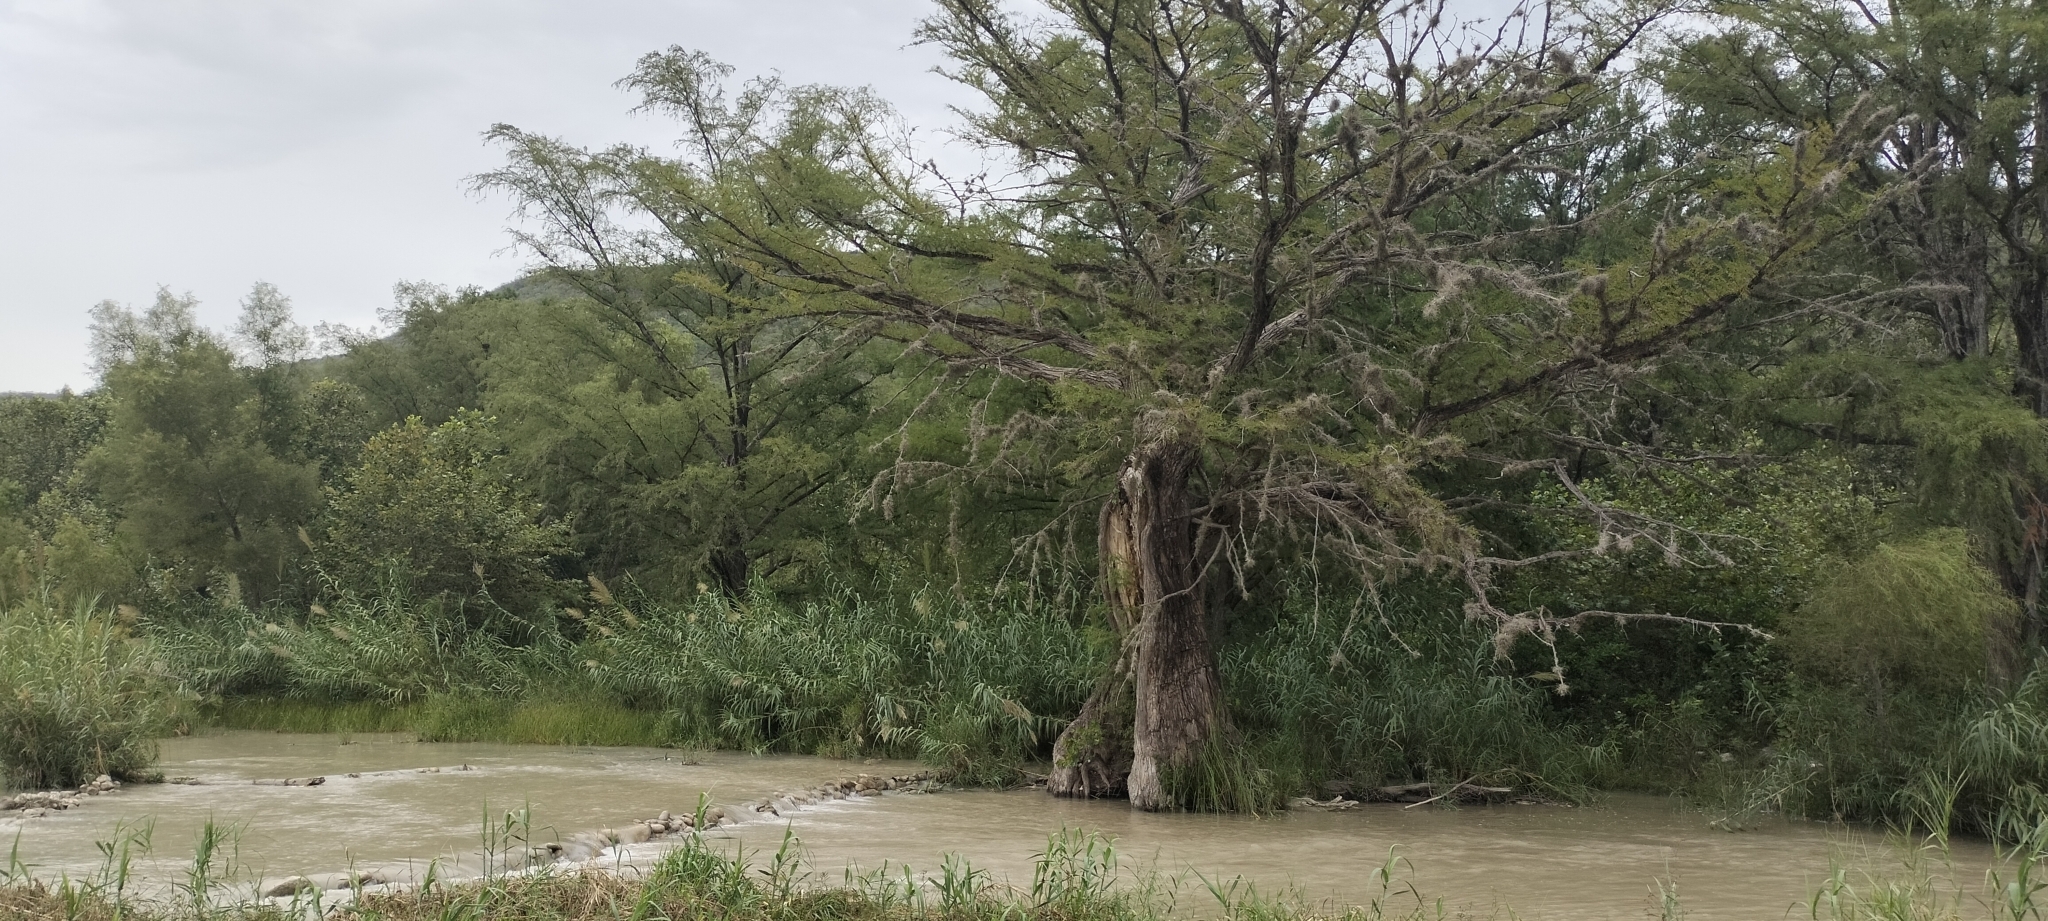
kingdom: Plantae
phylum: Tracheophyta
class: Pinopsida
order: Pinales
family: Cupressaceae
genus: Taxodium
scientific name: Taxodium mucronatum
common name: Montezume bald cypress
